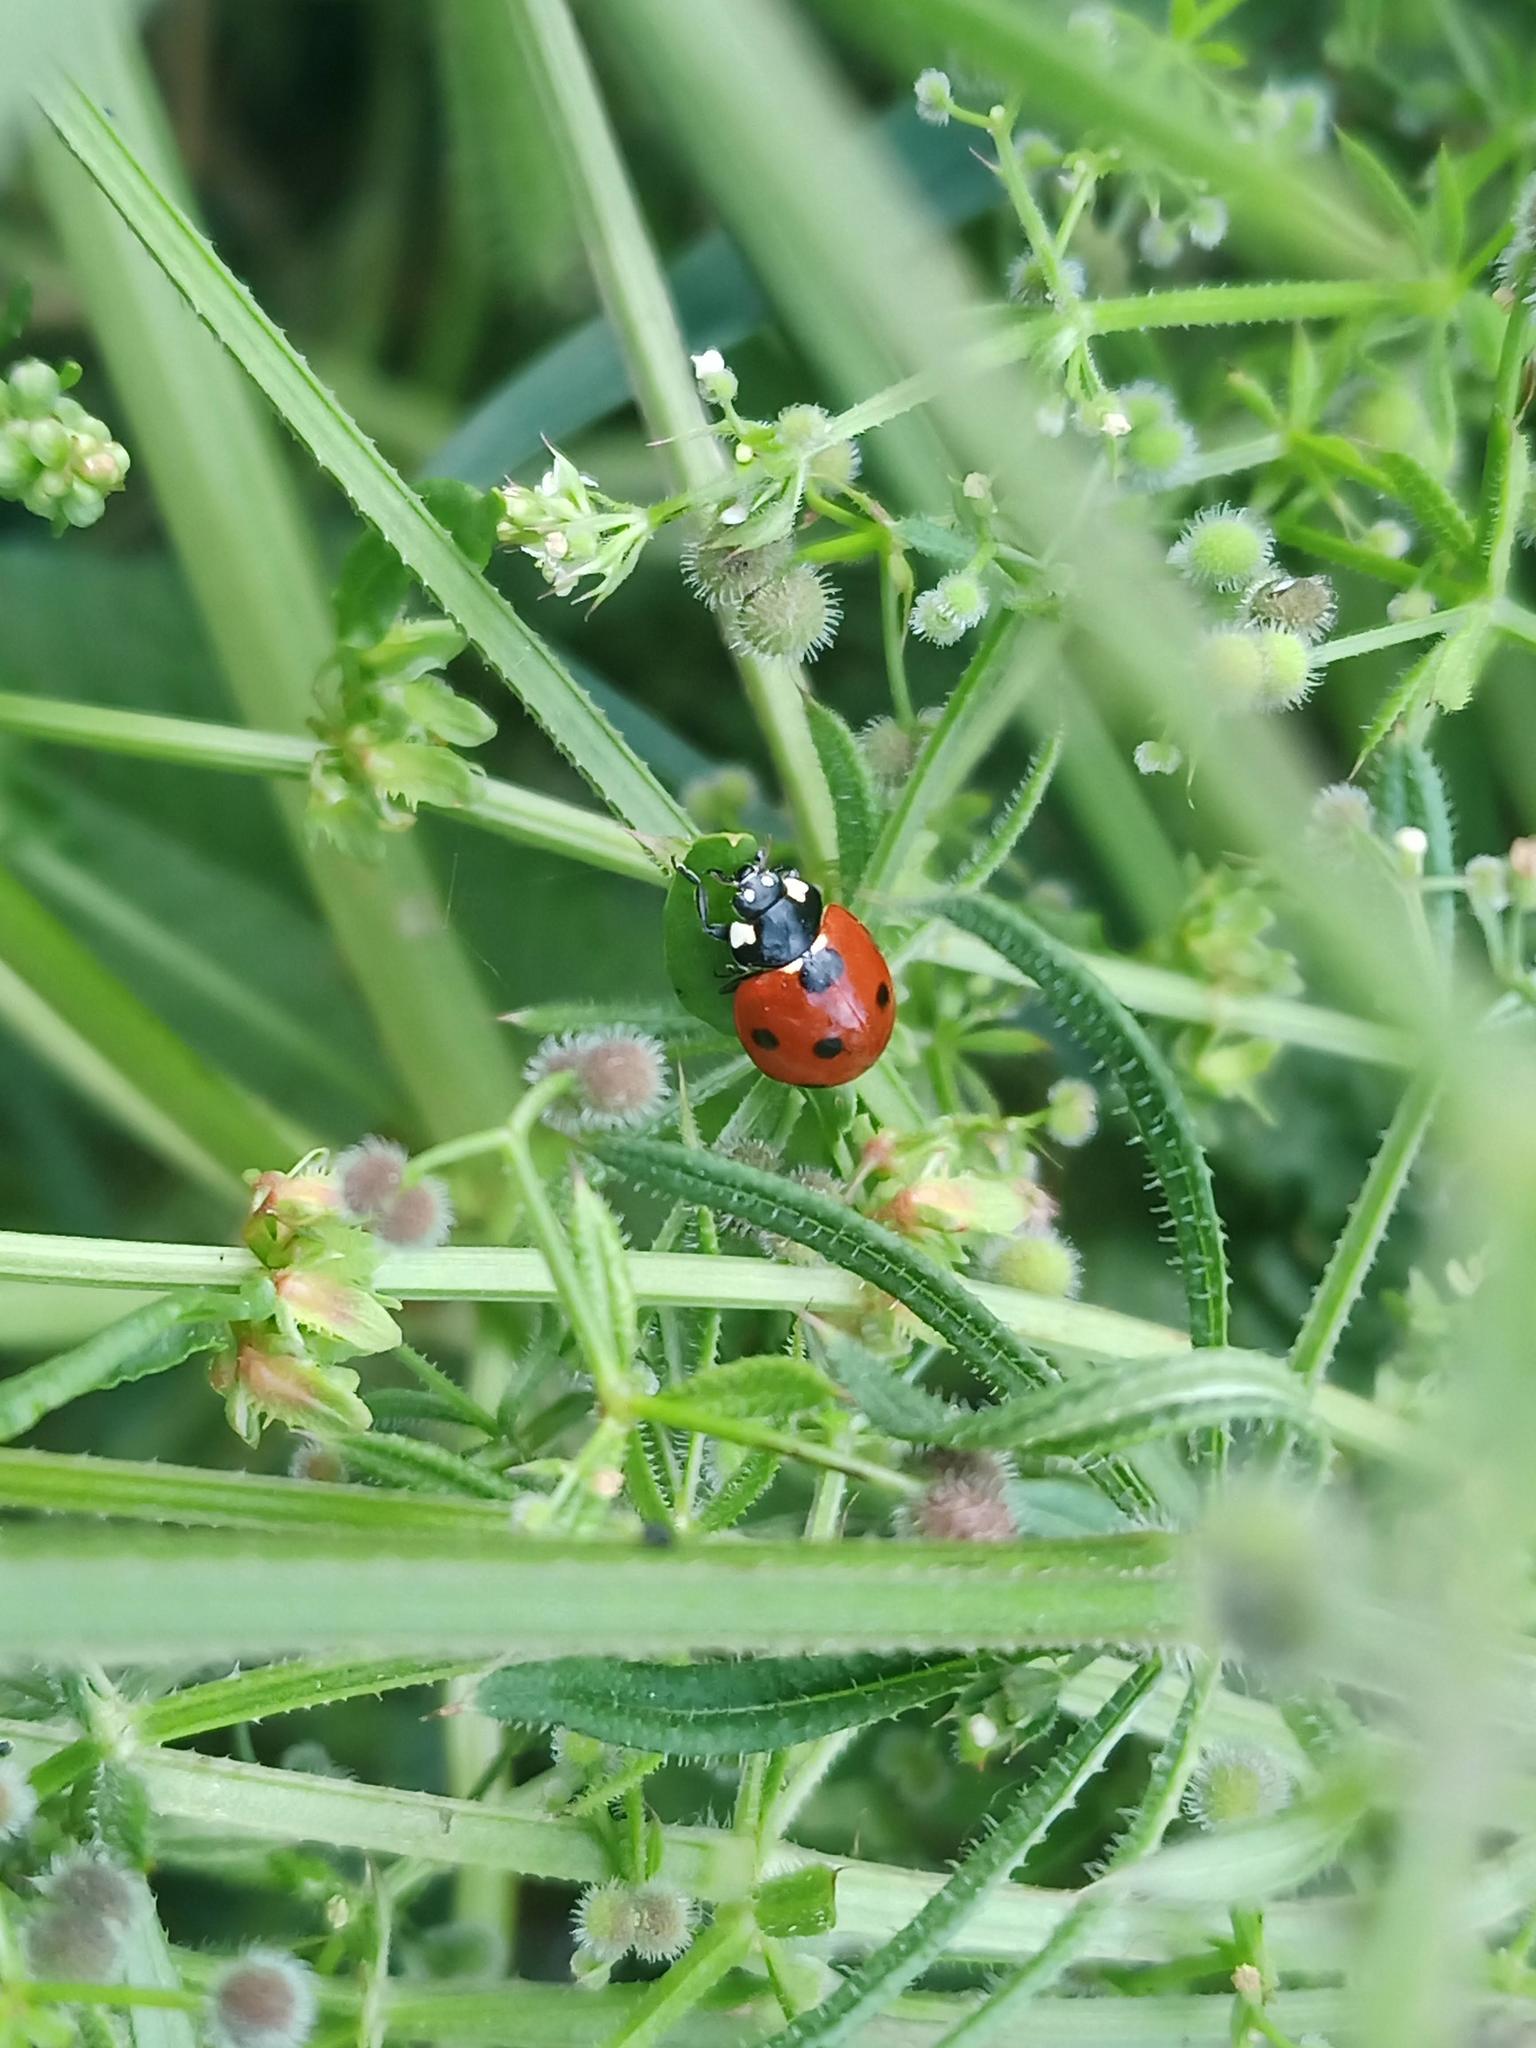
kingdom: Animalia
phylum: Arthropoda
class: Insecta
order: Coleoptera
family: Coccinellidae
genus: Coccinella
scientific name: Coccinella septempunctata
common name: Sevenspotted lady beetle
